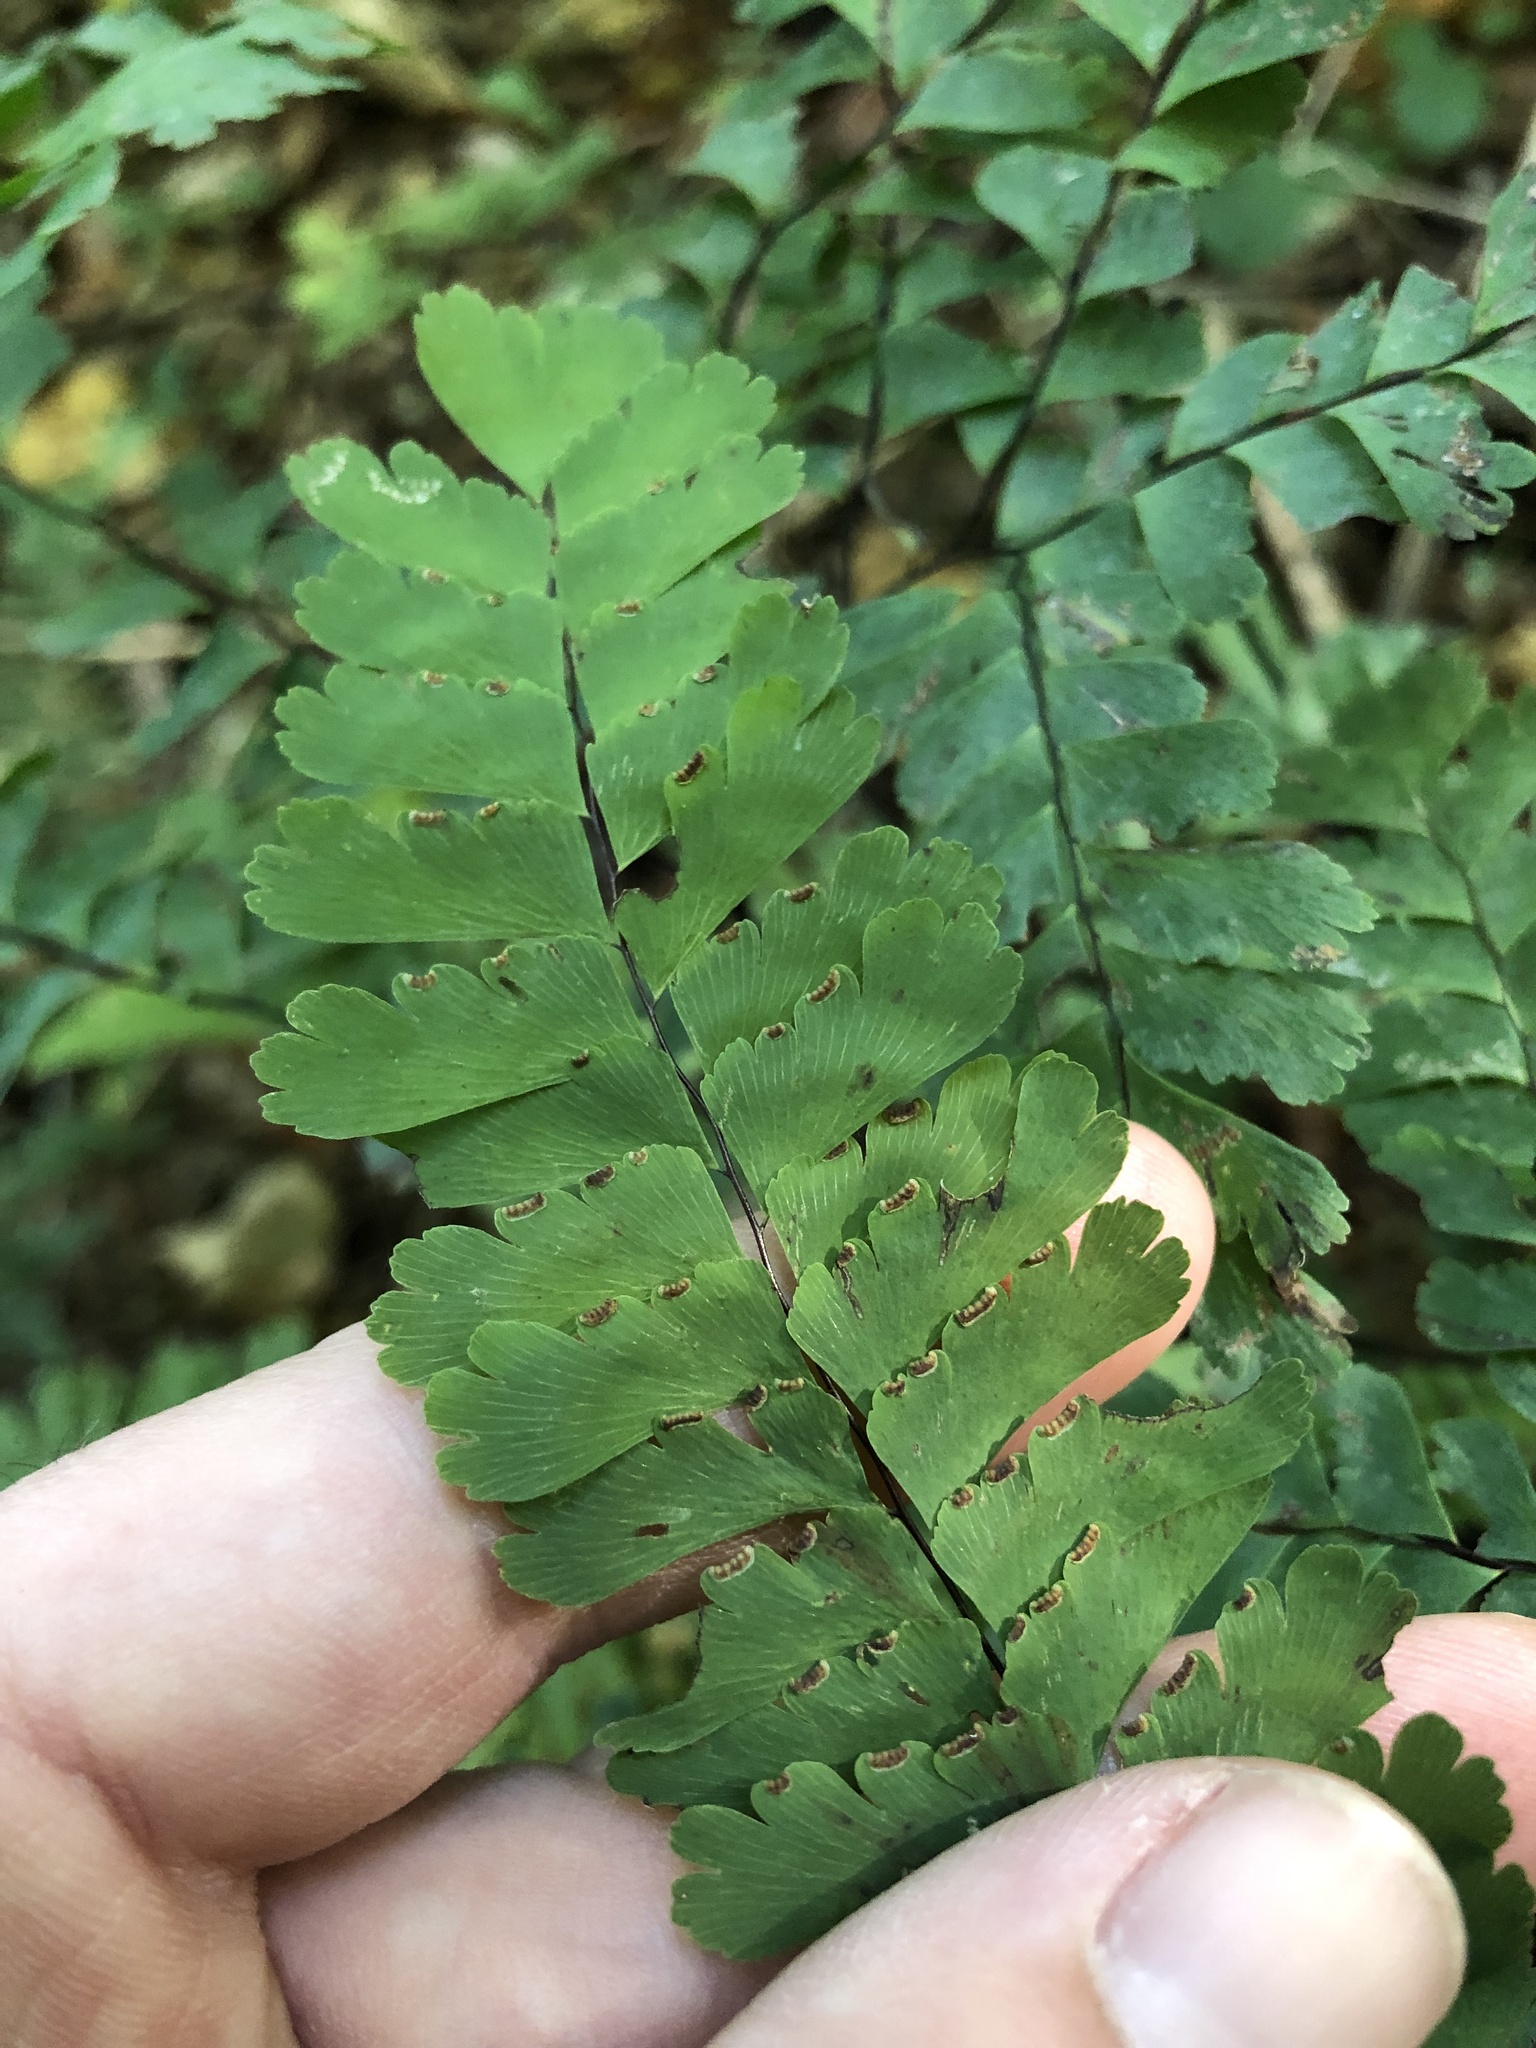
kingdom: Plantae
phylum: Tracheophyta
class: Polypodiopsida
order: Polypodiales
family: Pteridaceae
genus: Adiantum
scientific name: Adiantum pedatum
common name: Five-finger fern
